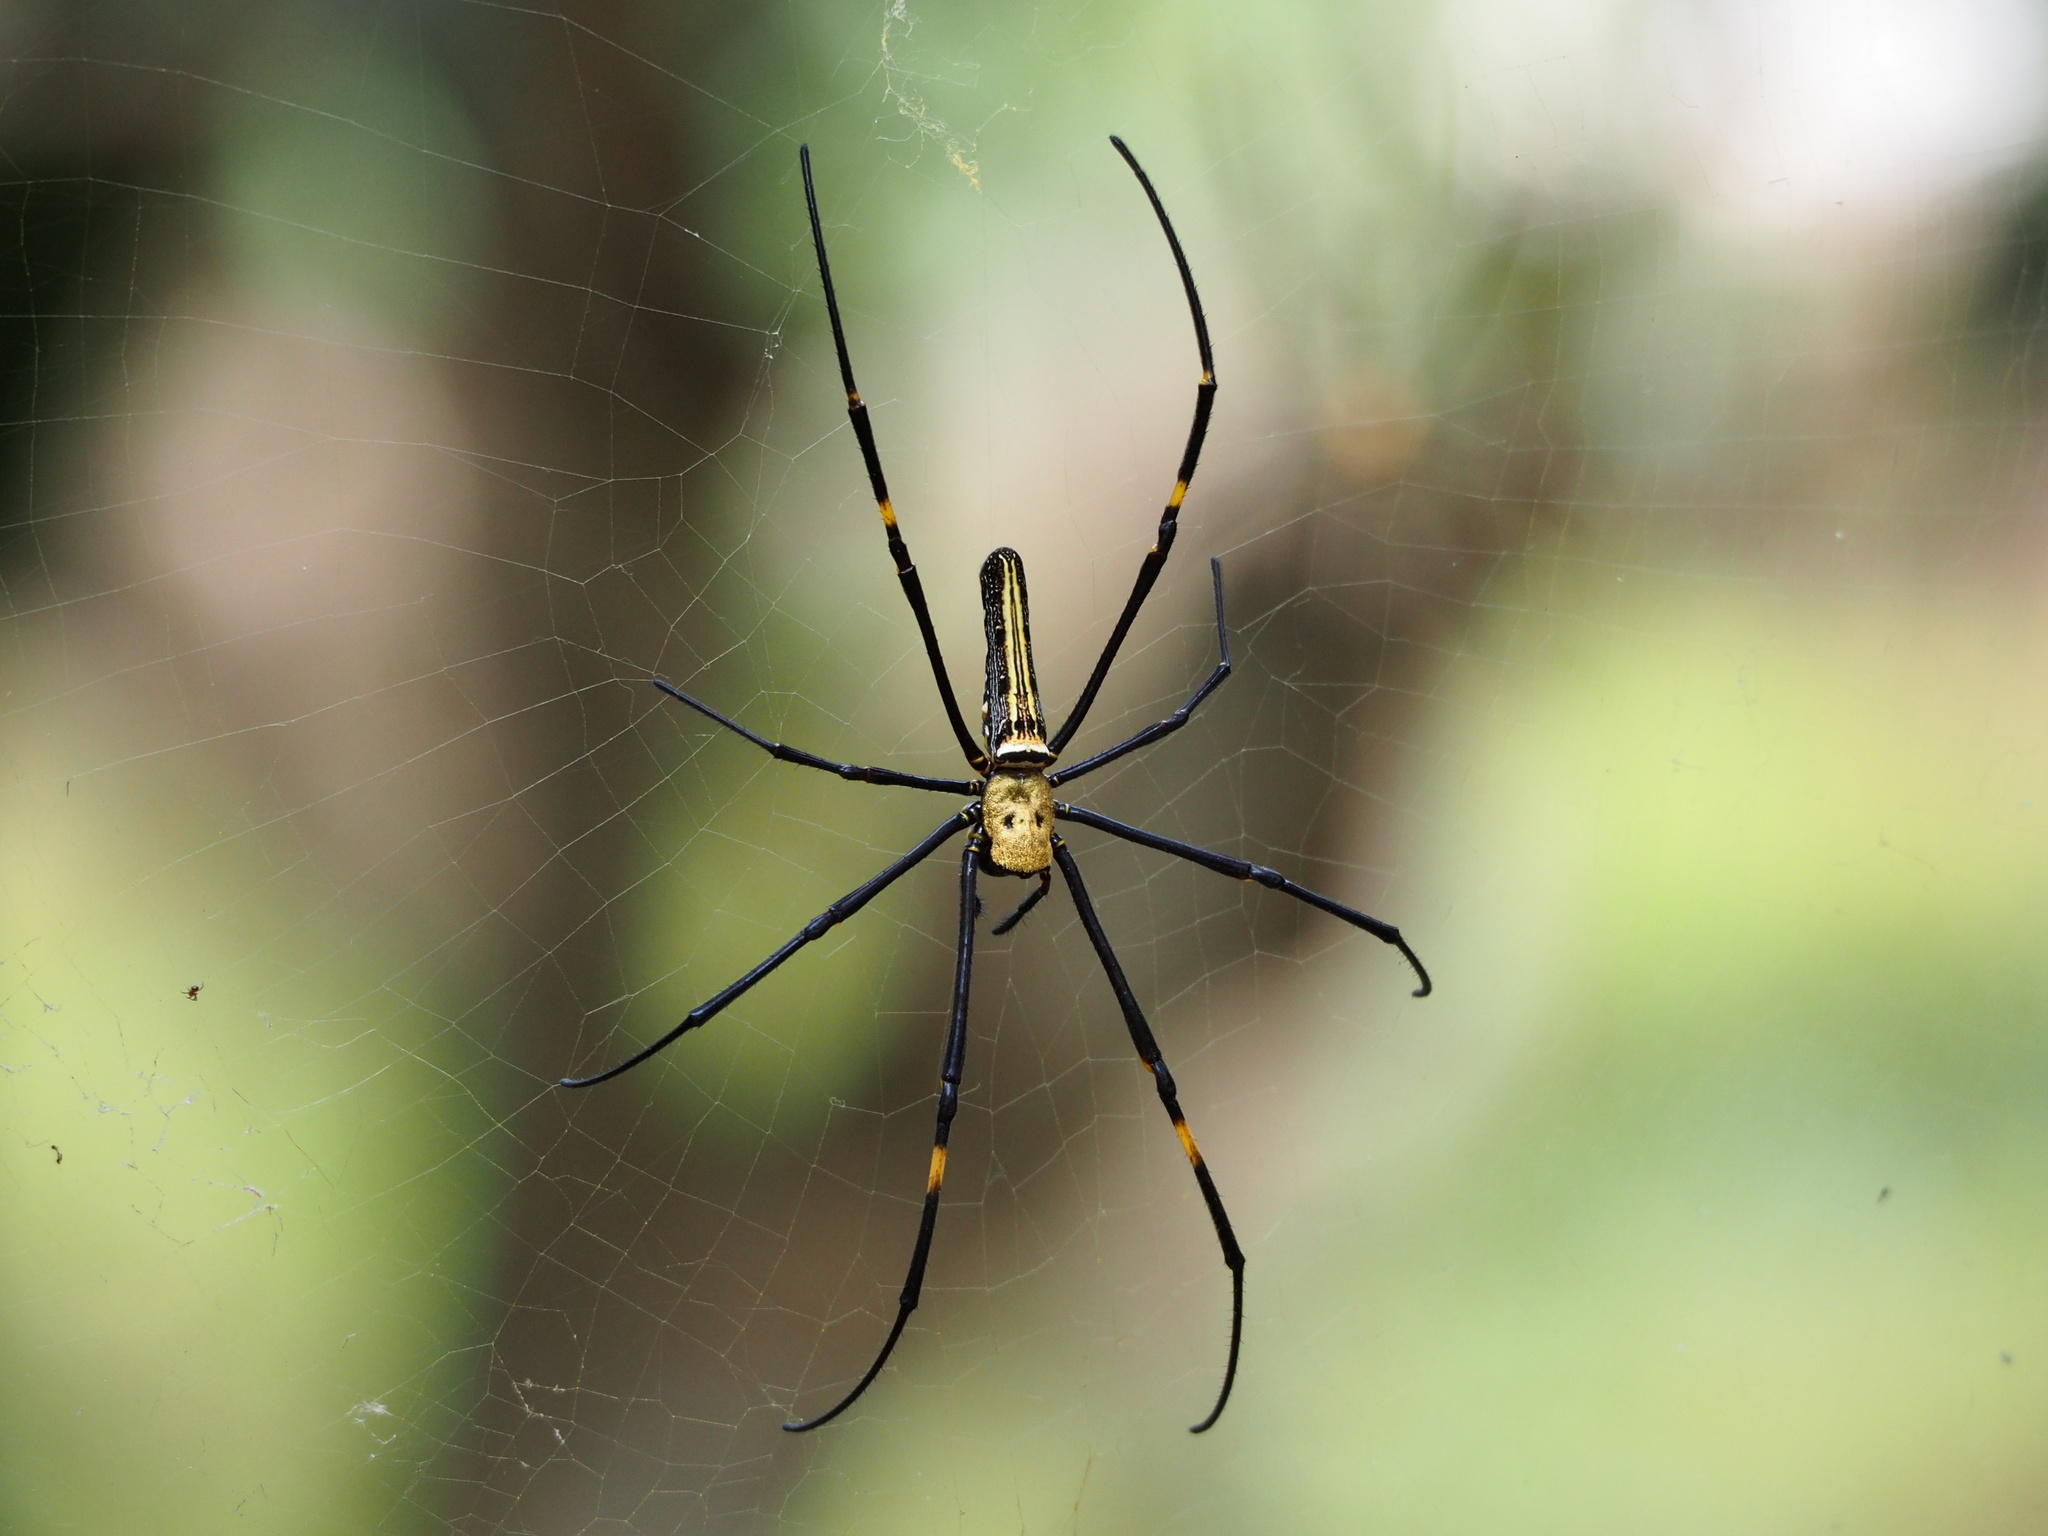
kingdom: Animalia
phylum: Arthropoda
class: Arachnida
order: Araneae
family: Araneidae
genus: Nephila
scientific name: Nephila pilipes
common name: Giant golden orb weaver
